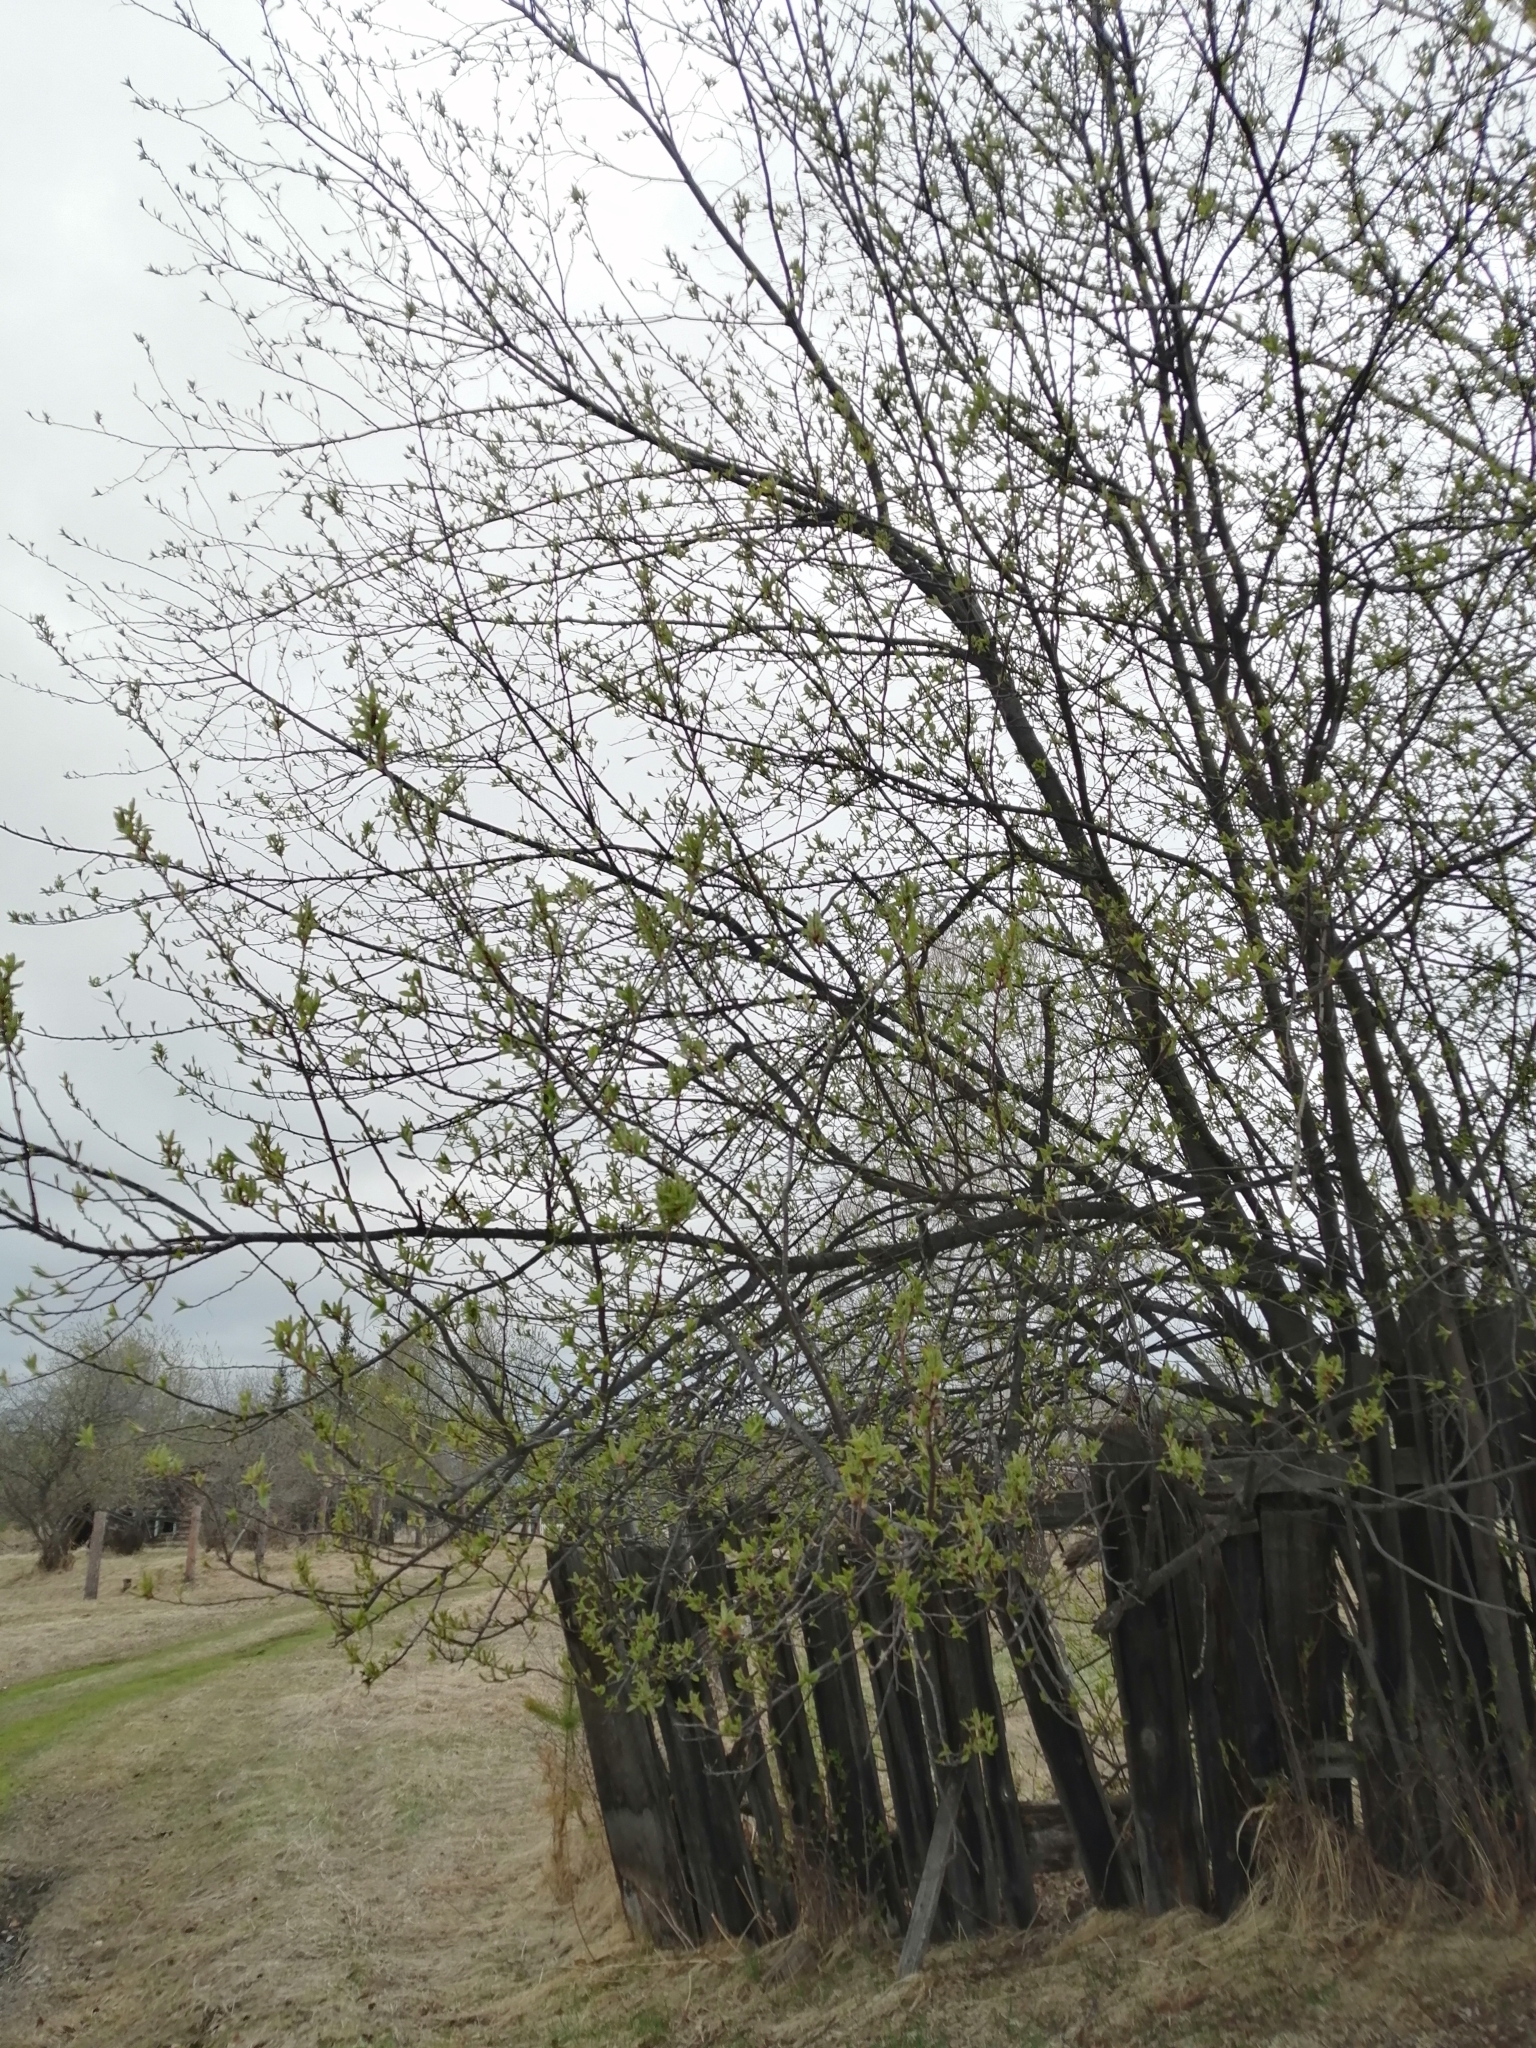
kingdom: Plantae
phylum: Tracheophyta
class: Magnoliopsida
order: Rosales
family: Rosaceae
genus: Prunus
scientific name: Prunus padus
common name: Bird cherry
